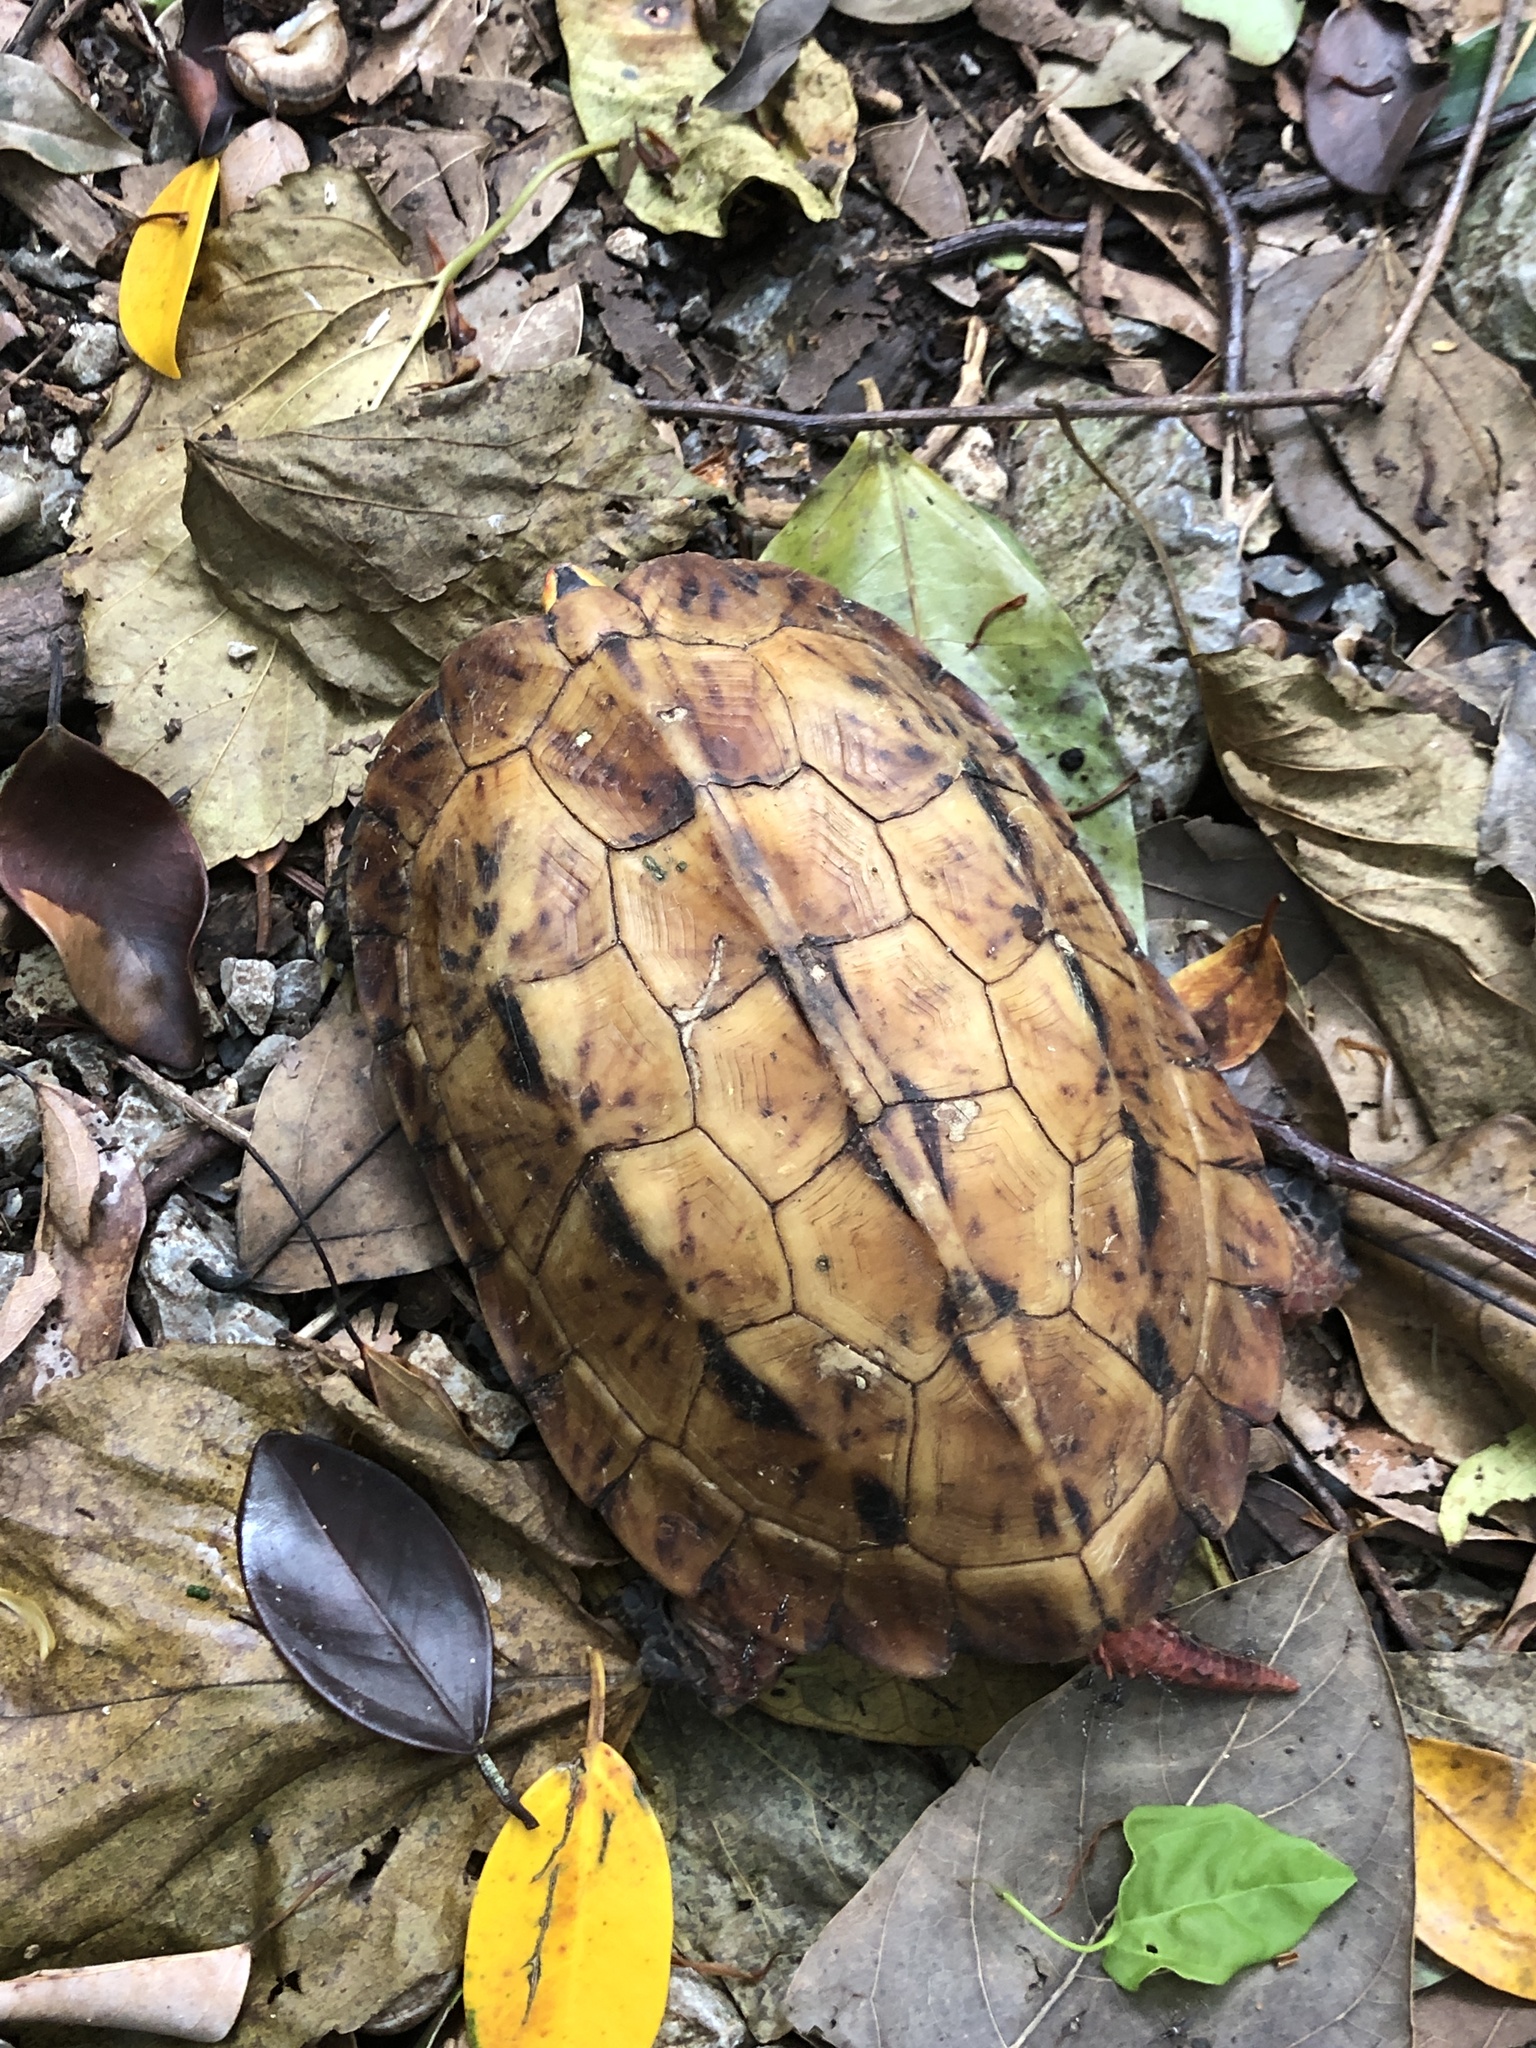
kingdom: Animalia
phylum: Chordata
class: Testudines
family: Geoemydidae
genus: Geoemyda
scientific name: Geoemyda japonica
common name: Okinawa black-breasted leaf turtle
